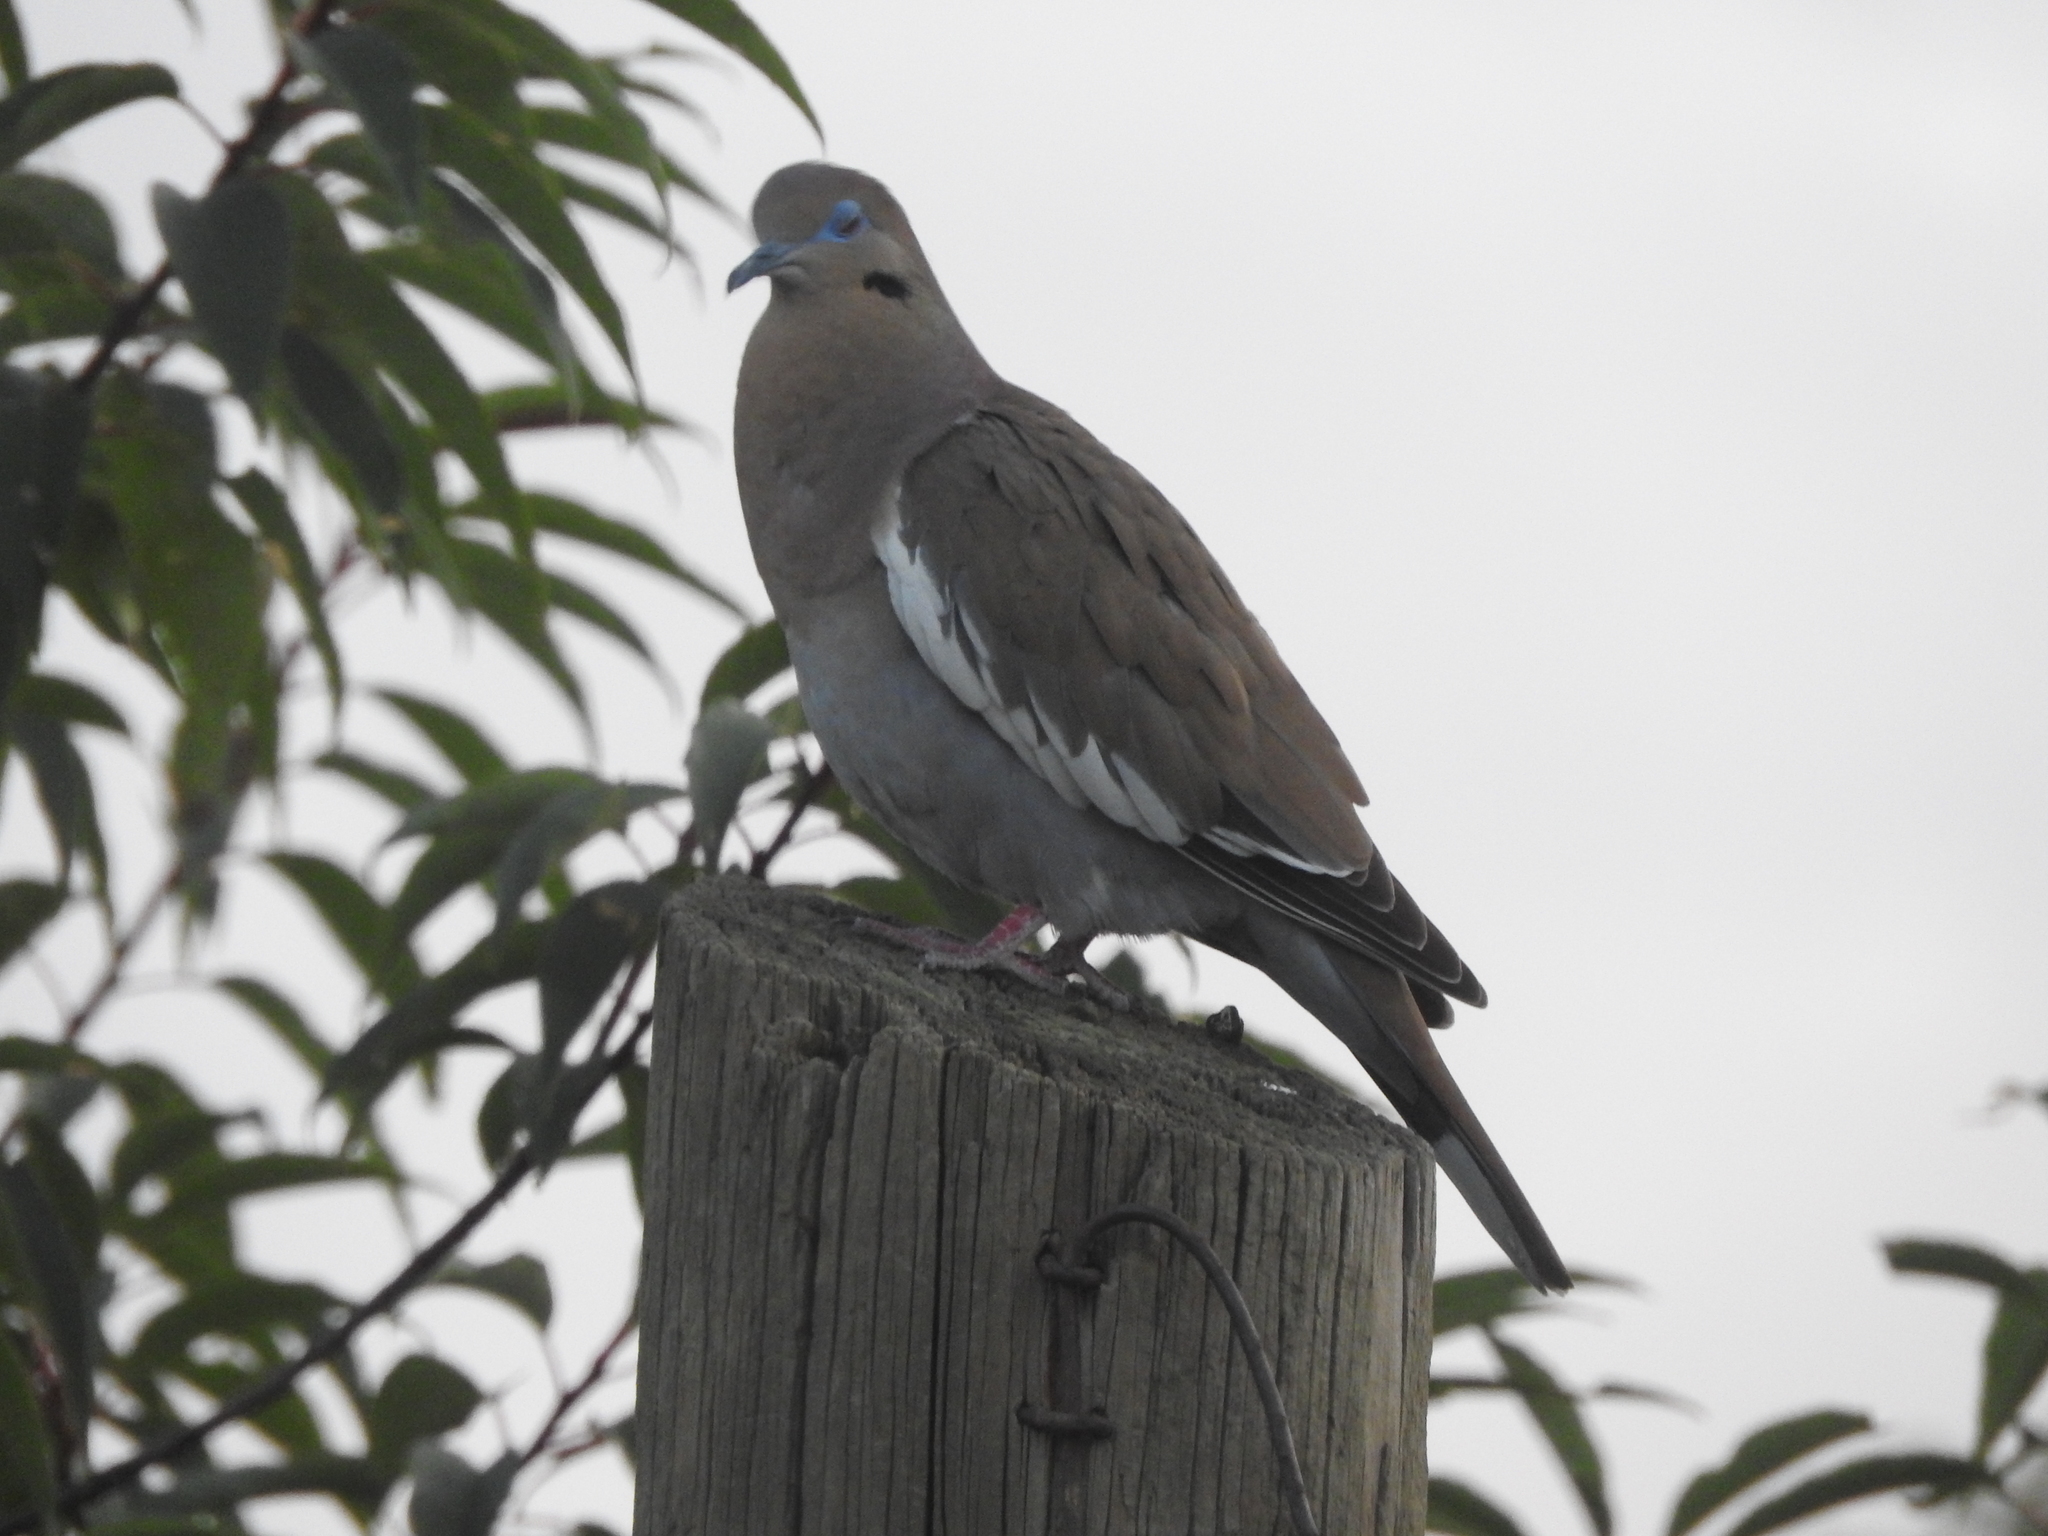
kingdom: Animalia
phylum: Chordata
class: Aves
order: Columbiformes
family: Columbidae
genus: Zenaida
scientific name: Zenaida asiatica
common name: White-winged dove
